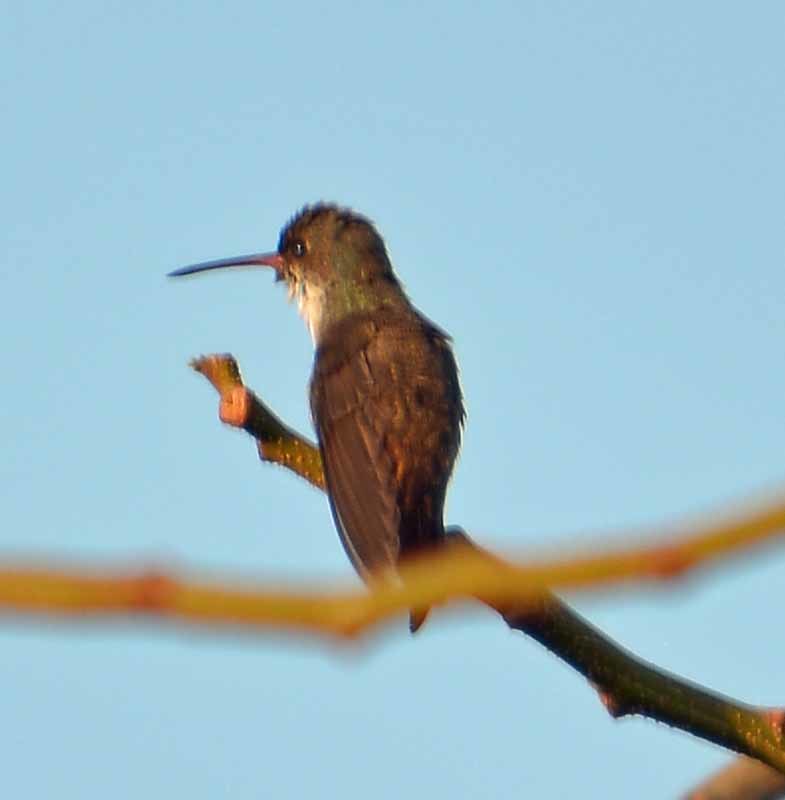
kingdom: Animalia
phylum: Chordata
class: Aves
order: Apodiformes
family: Trochilidae
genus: Leucolia
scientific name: Leucolia violiceps
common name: Violet-crowned hummingbird
